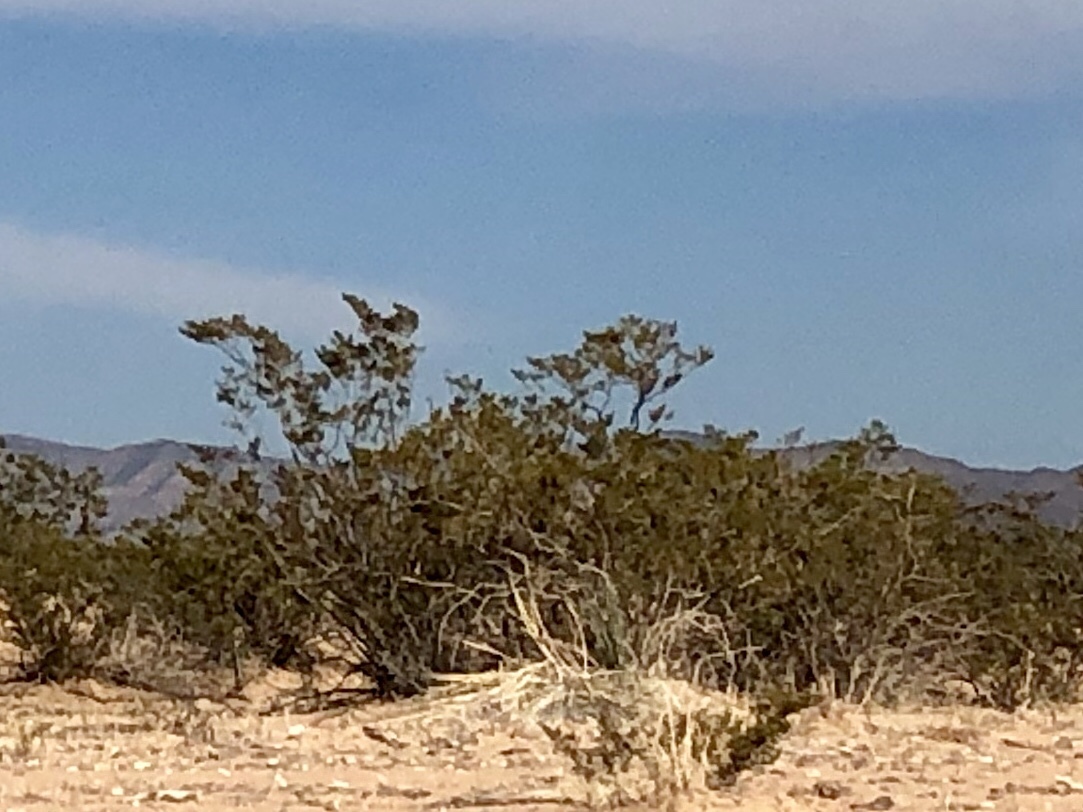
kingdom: Plantae
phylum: Tracheophyta
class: Magnoliopsida
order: Zygophyllales
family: Zygophyllaceae
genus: Larrea
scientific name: Larrea tridentata
